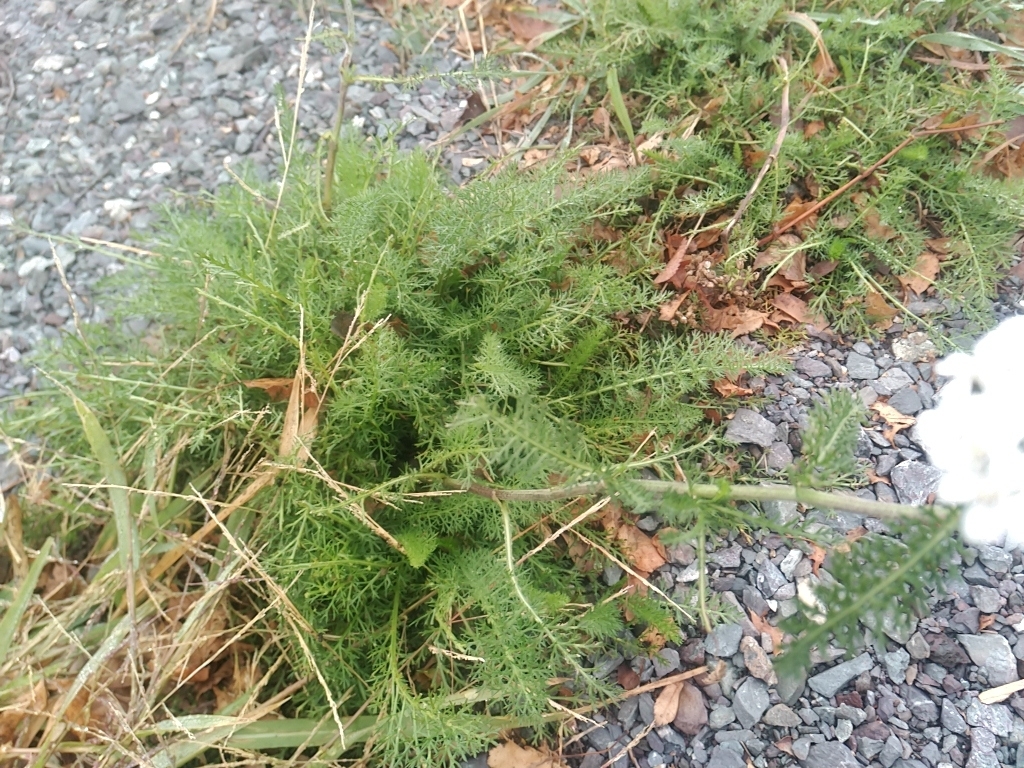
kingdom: Plantae
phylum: Tracheophyta
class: Magnoliopsida
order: Asterales
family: Asteraceae
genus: Achillea
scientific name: Achillea millefolium
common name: Yarrow
